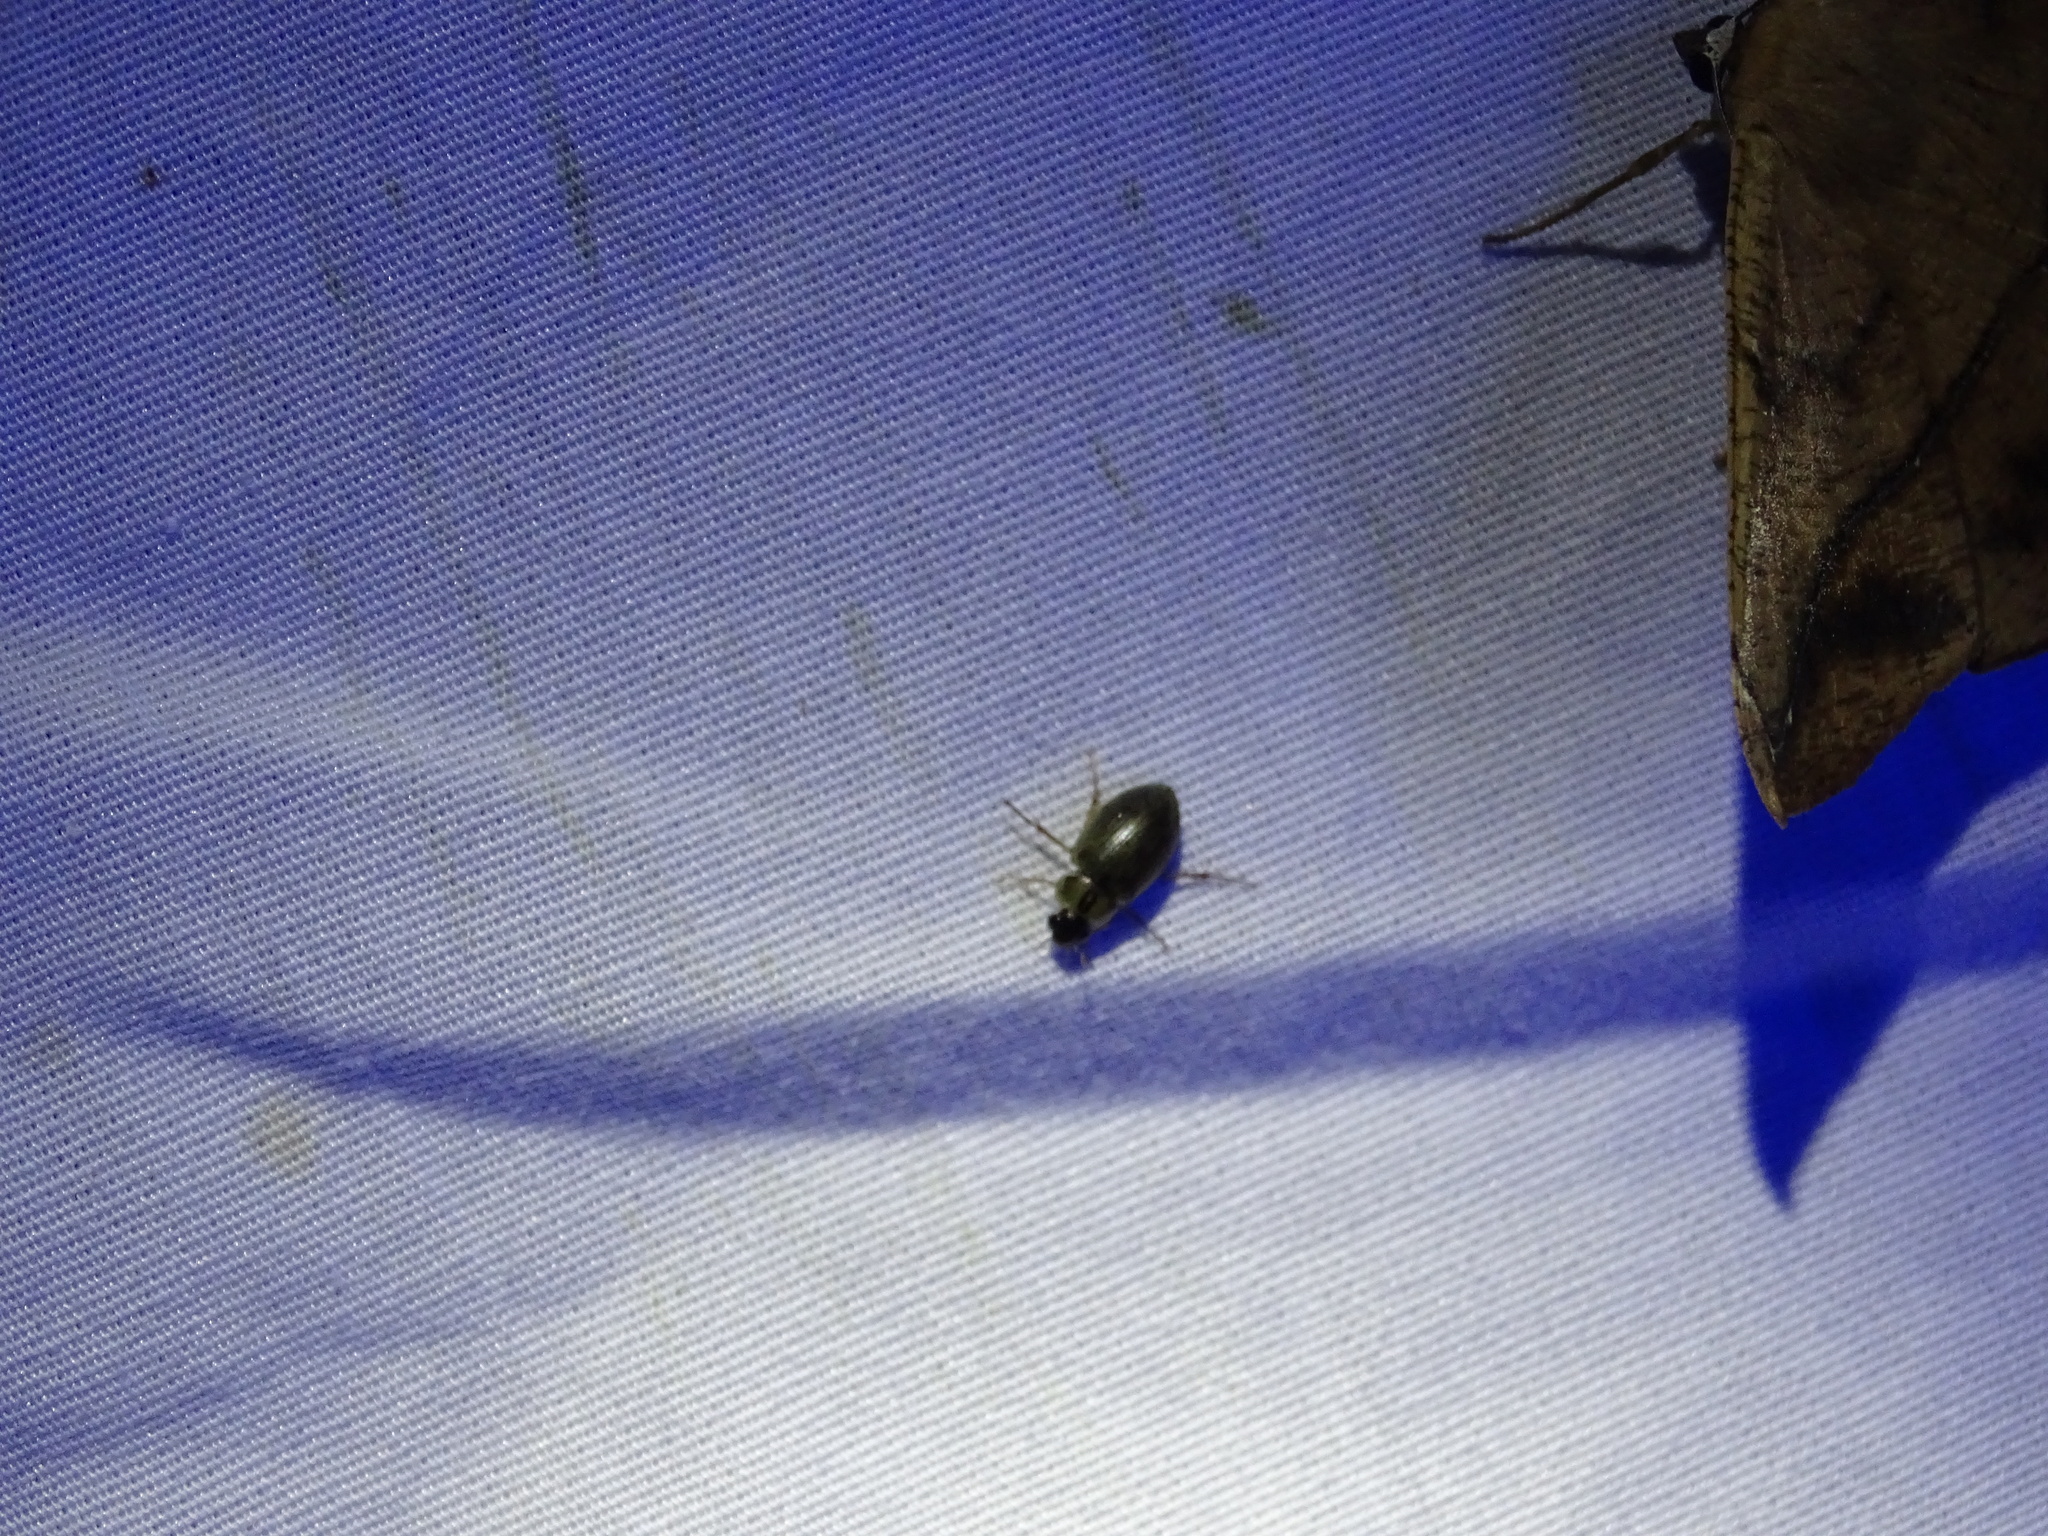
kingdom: Animalia
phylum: Arthropoda
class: Insecta
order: Coleoptera
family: Hydrophilidae
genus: Berosus
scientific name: Berosus
